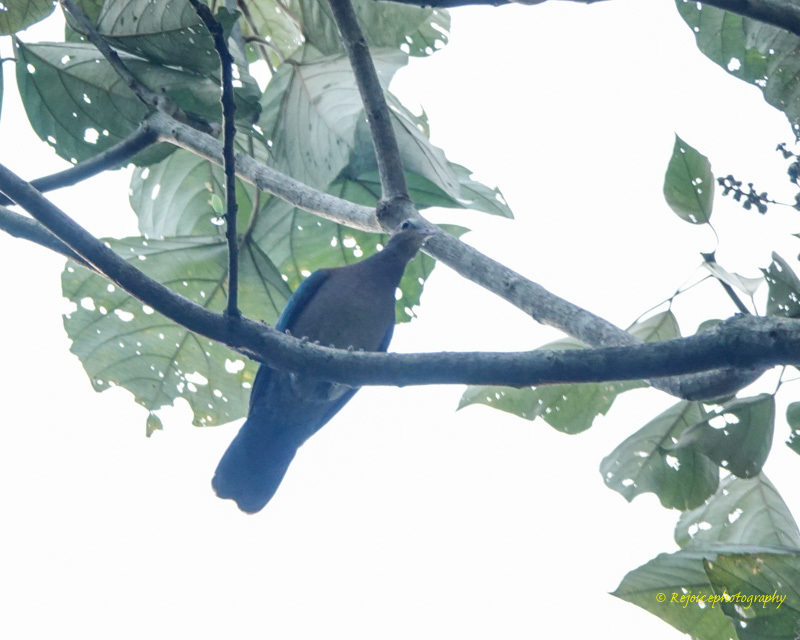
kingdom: Animalia
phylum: Chordata
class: Aves
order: Columbiformes
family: Columbidae
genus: Chalcophaps
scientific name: Chalcophaps indica
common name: Common emerald dove
